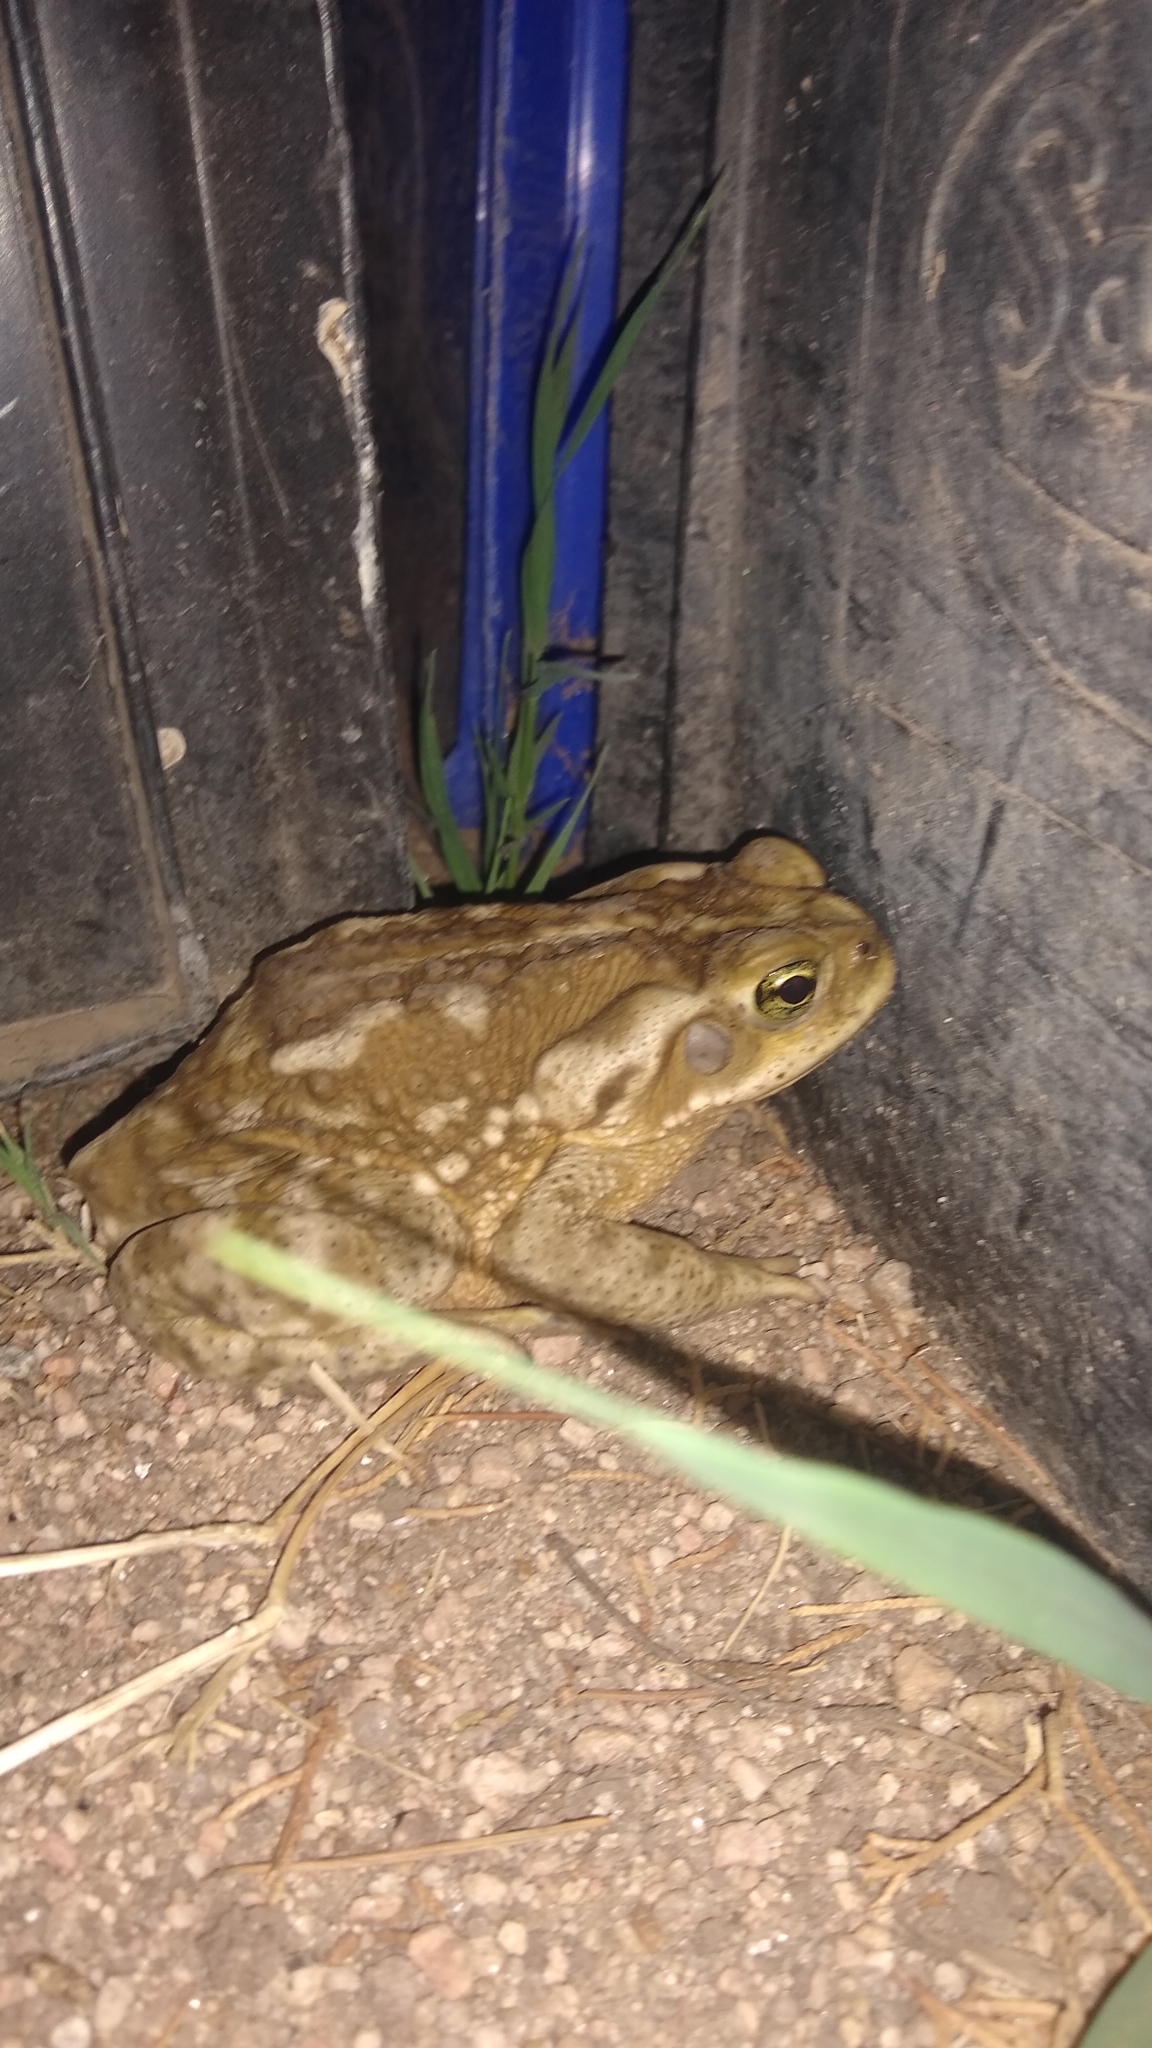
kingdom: Animalia
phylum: Chordata
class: Amphibia
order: Anura
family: Bufonidae
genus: Rhinella
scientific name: Rhinella arenarum
